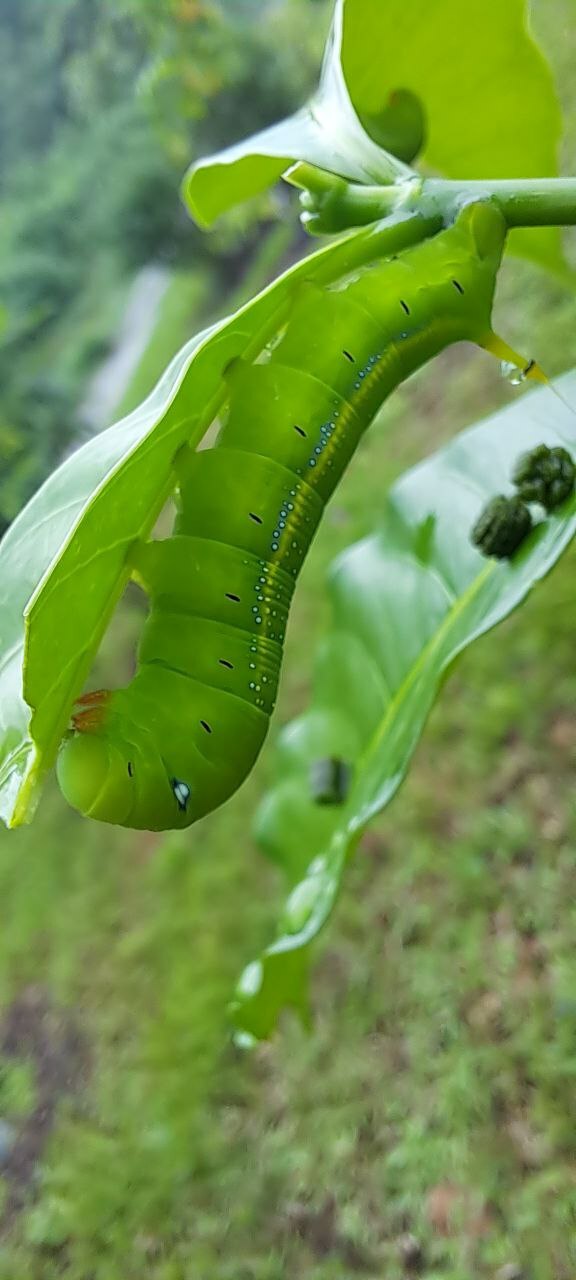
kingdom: Animalia
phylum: Arthropoda
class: Insecta
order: Lepidoptera
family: Sphingidae
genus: Daphnis
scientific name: Daphnis nerii
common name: Oleander hawk-moth
